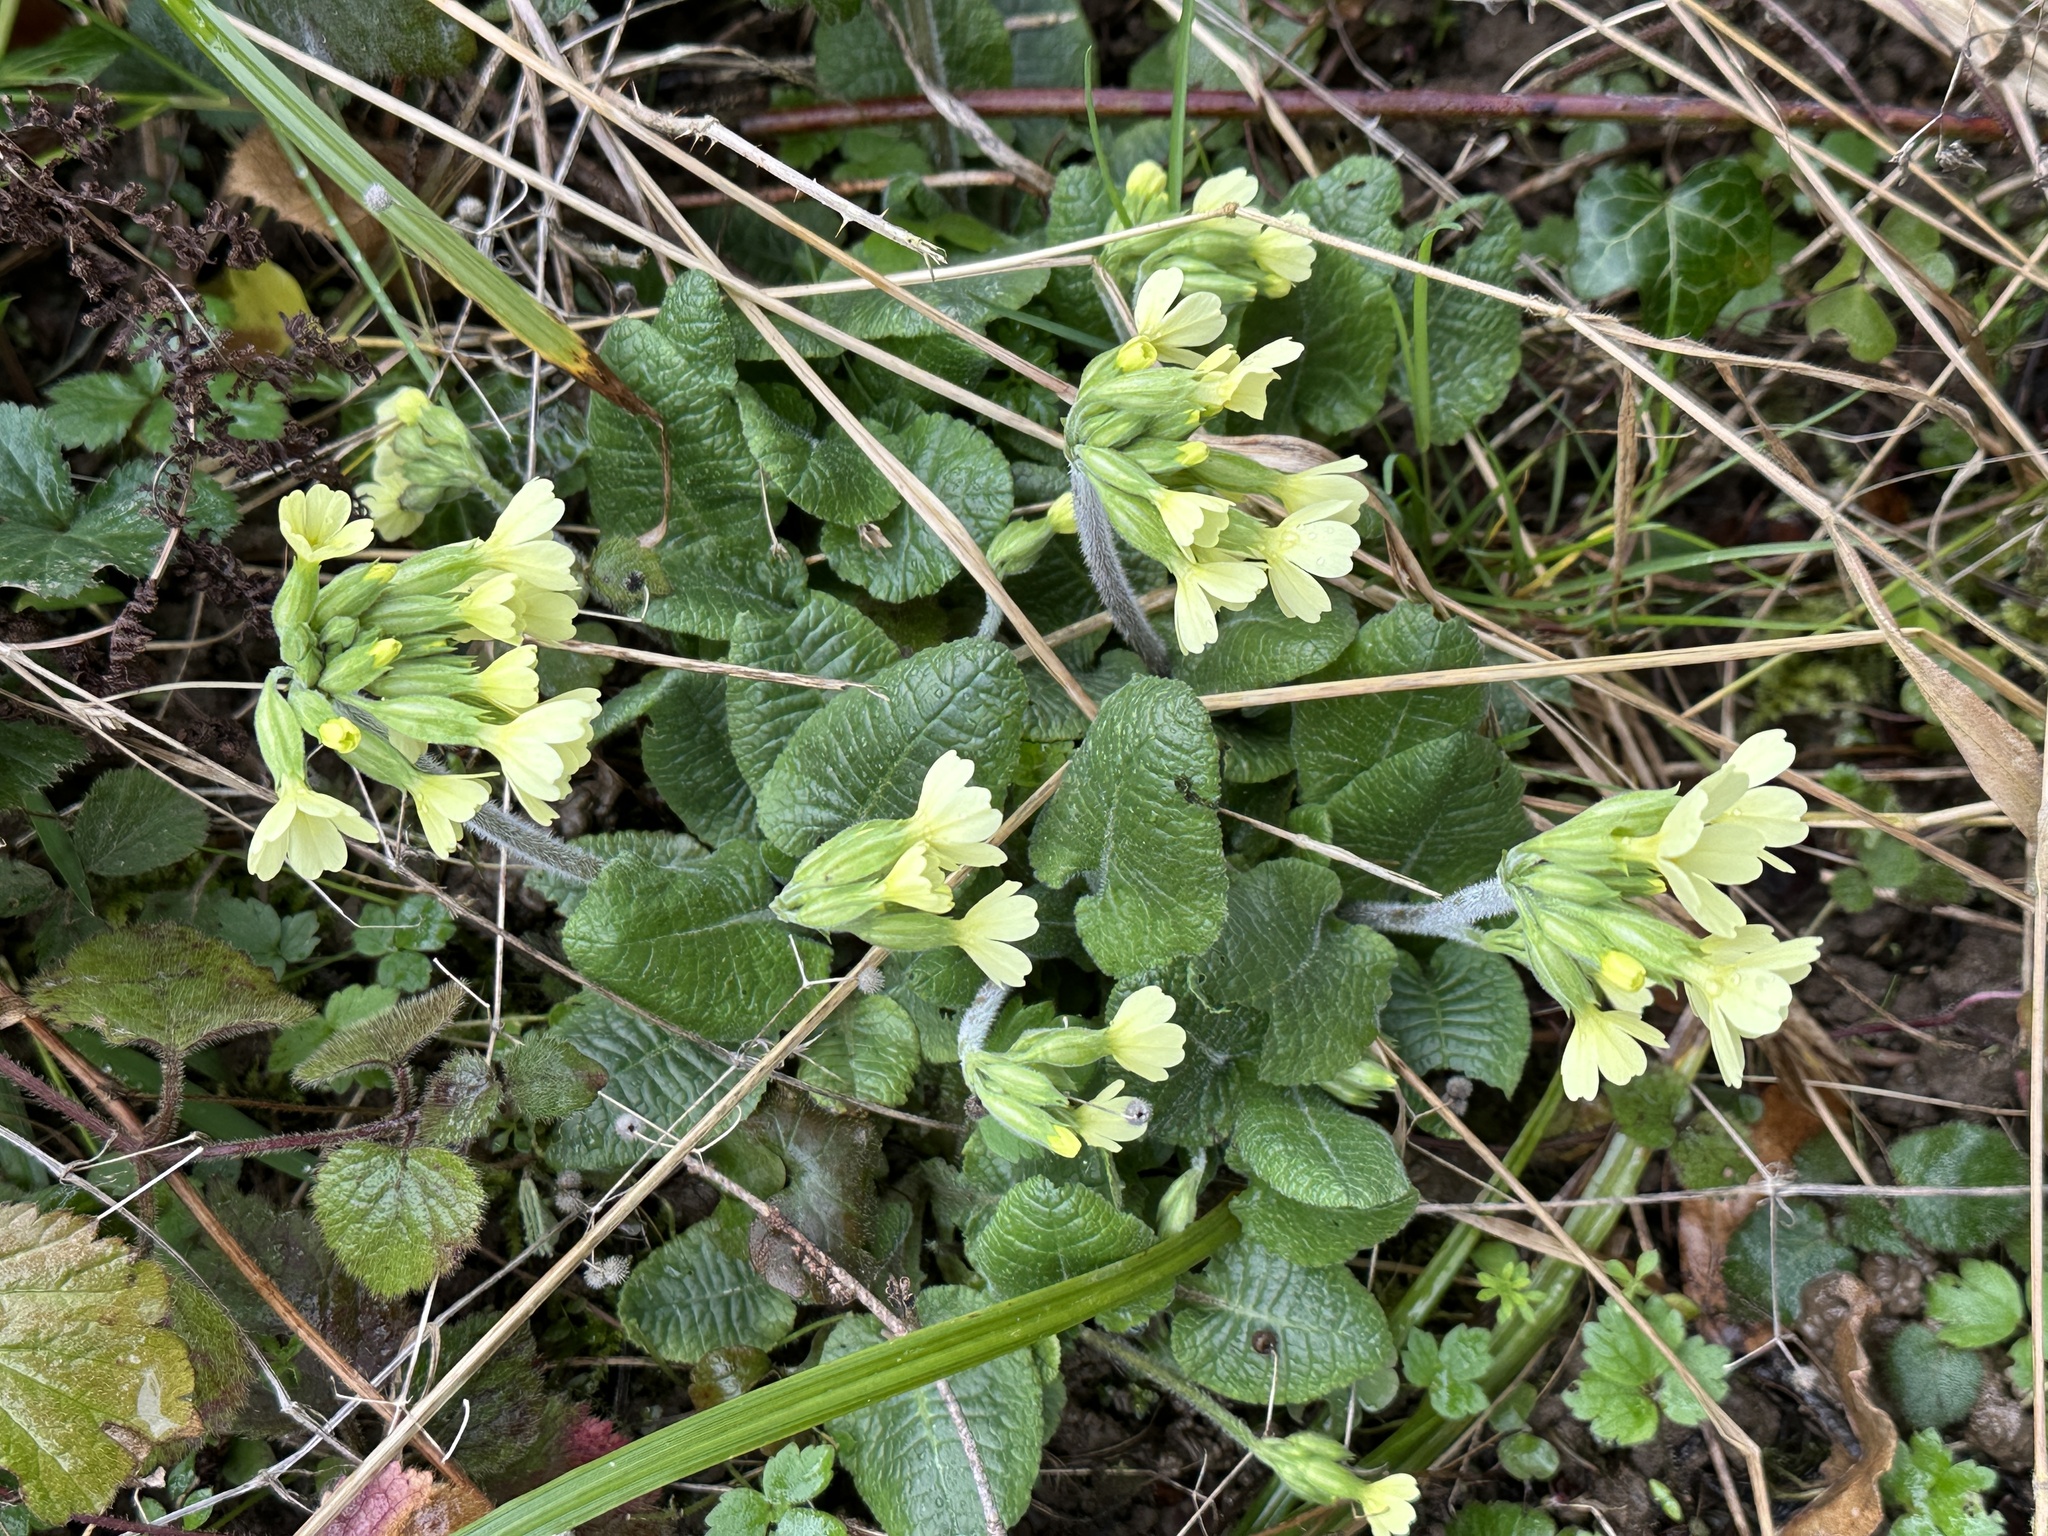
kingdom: Plantae
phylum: Tracheophyta
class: Magnoliopsida
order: Ericales
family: Primulaceae
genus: Primula
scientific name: Primula elatior
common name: Oxlip
